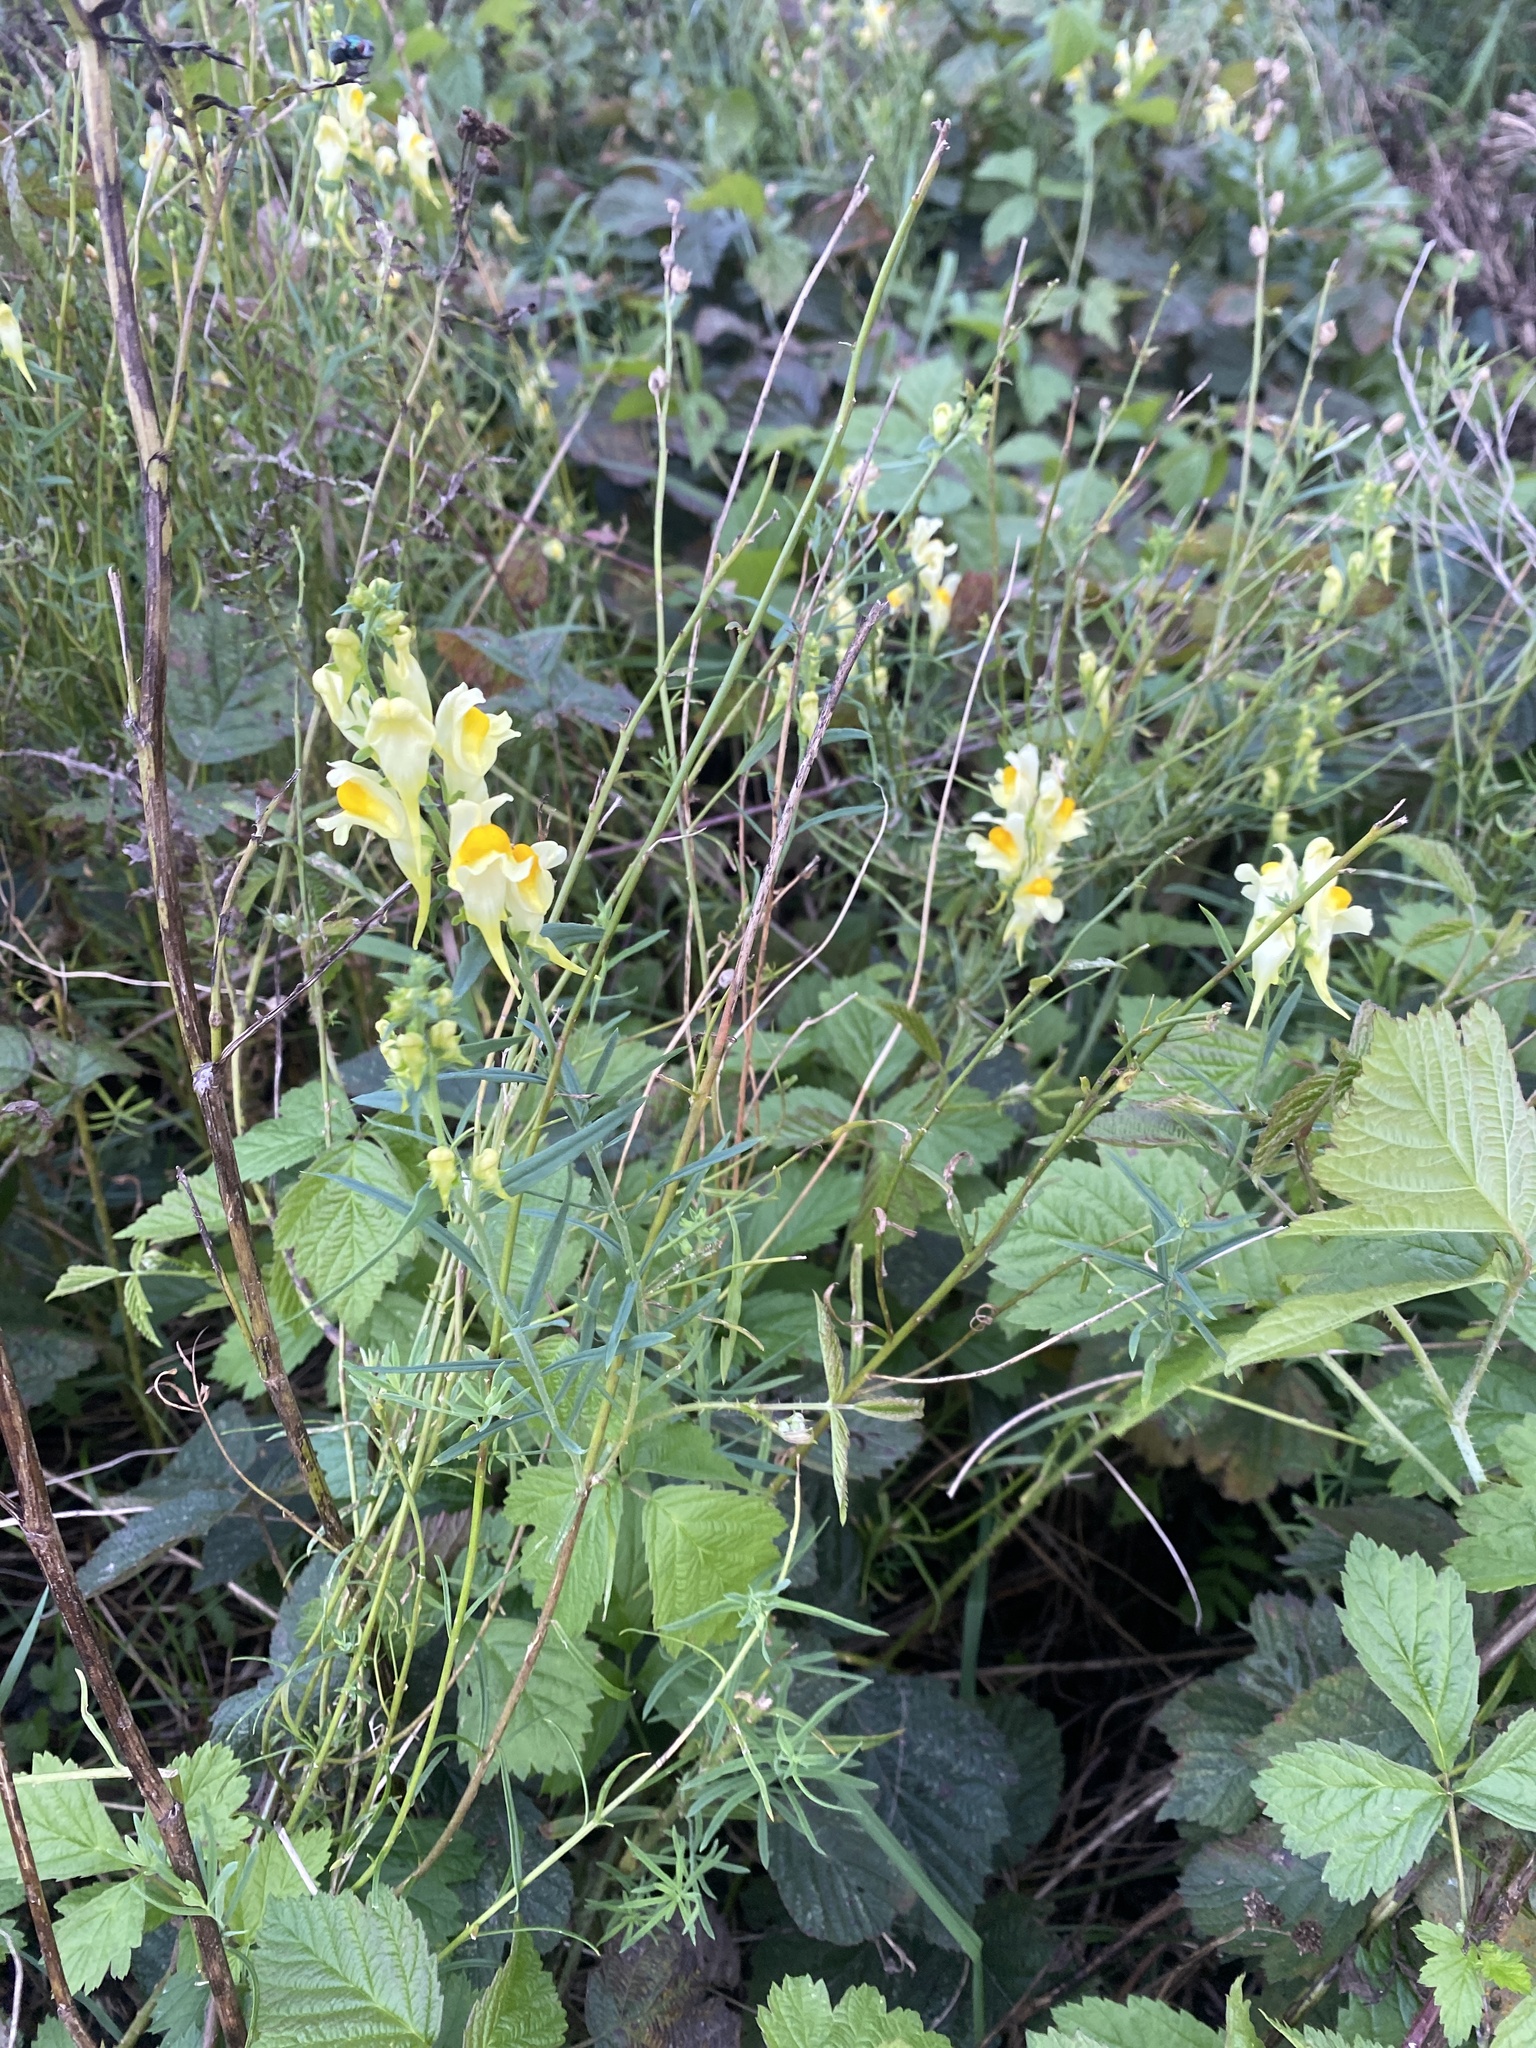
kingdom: Plantae
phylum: Tracheophyta
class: Magnoliopsida
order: Lamiales
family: Plantaginaceae
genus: Linaria
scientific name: Linaria vulgaris
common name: Butter and eggs
